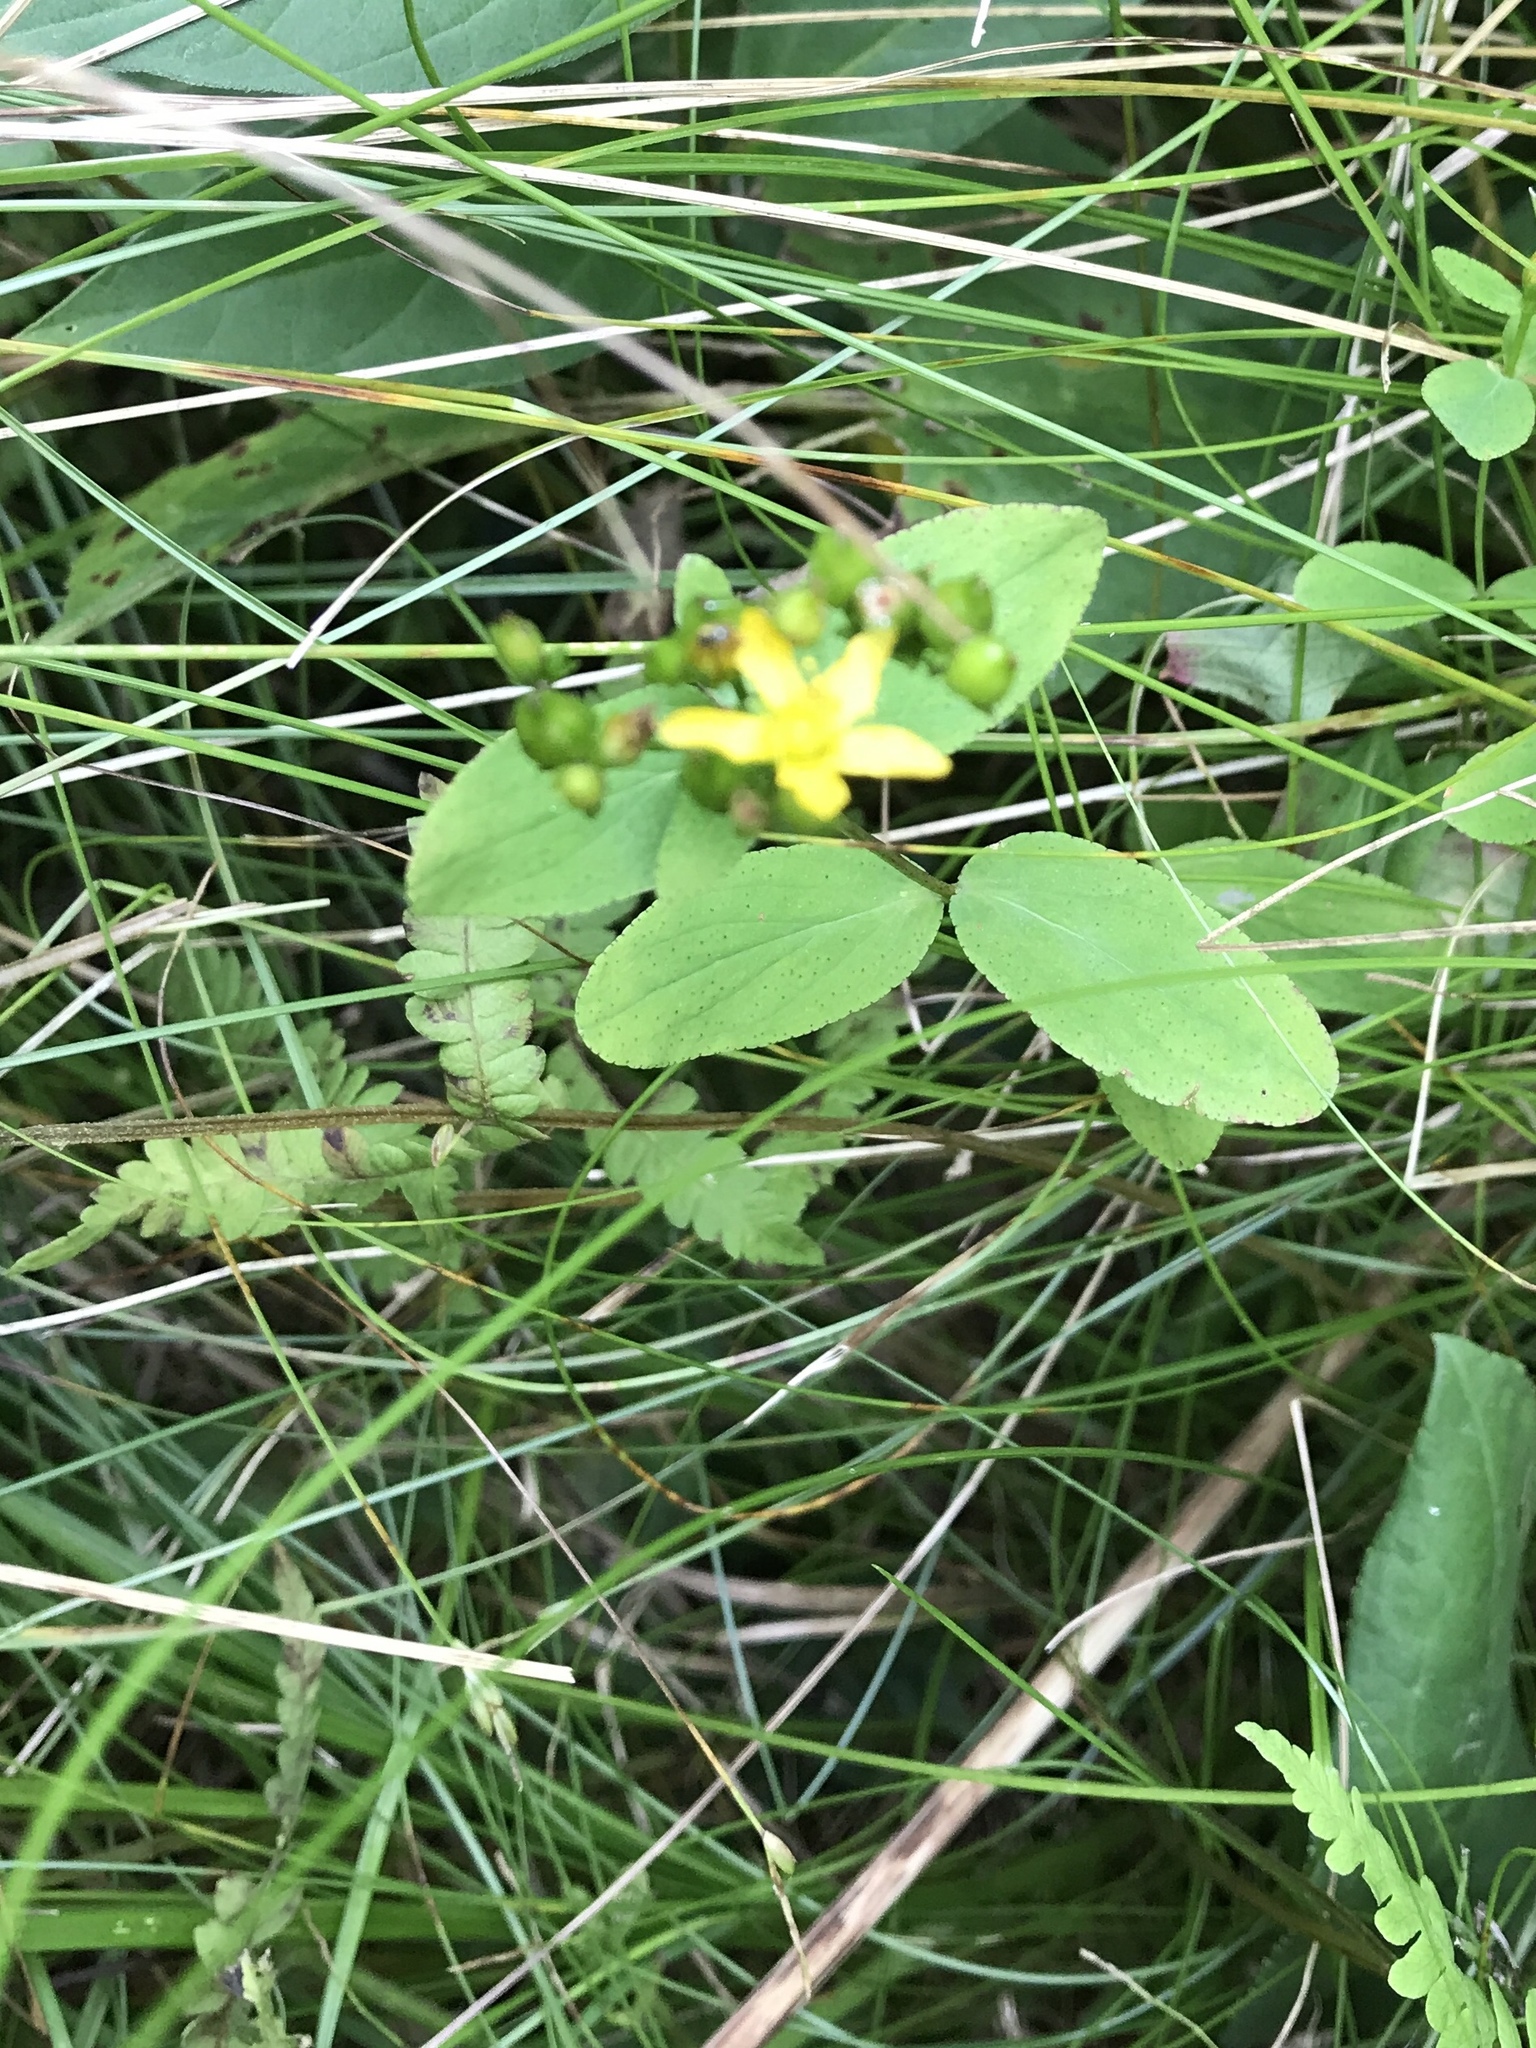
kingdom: Plantae
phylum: Tracheophyta
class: Magnoliopsida
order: Malpighiales
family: Hypericaceae
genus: Hypericum
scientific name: Hypericum punctatum
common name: Spotted st. john's-wort
